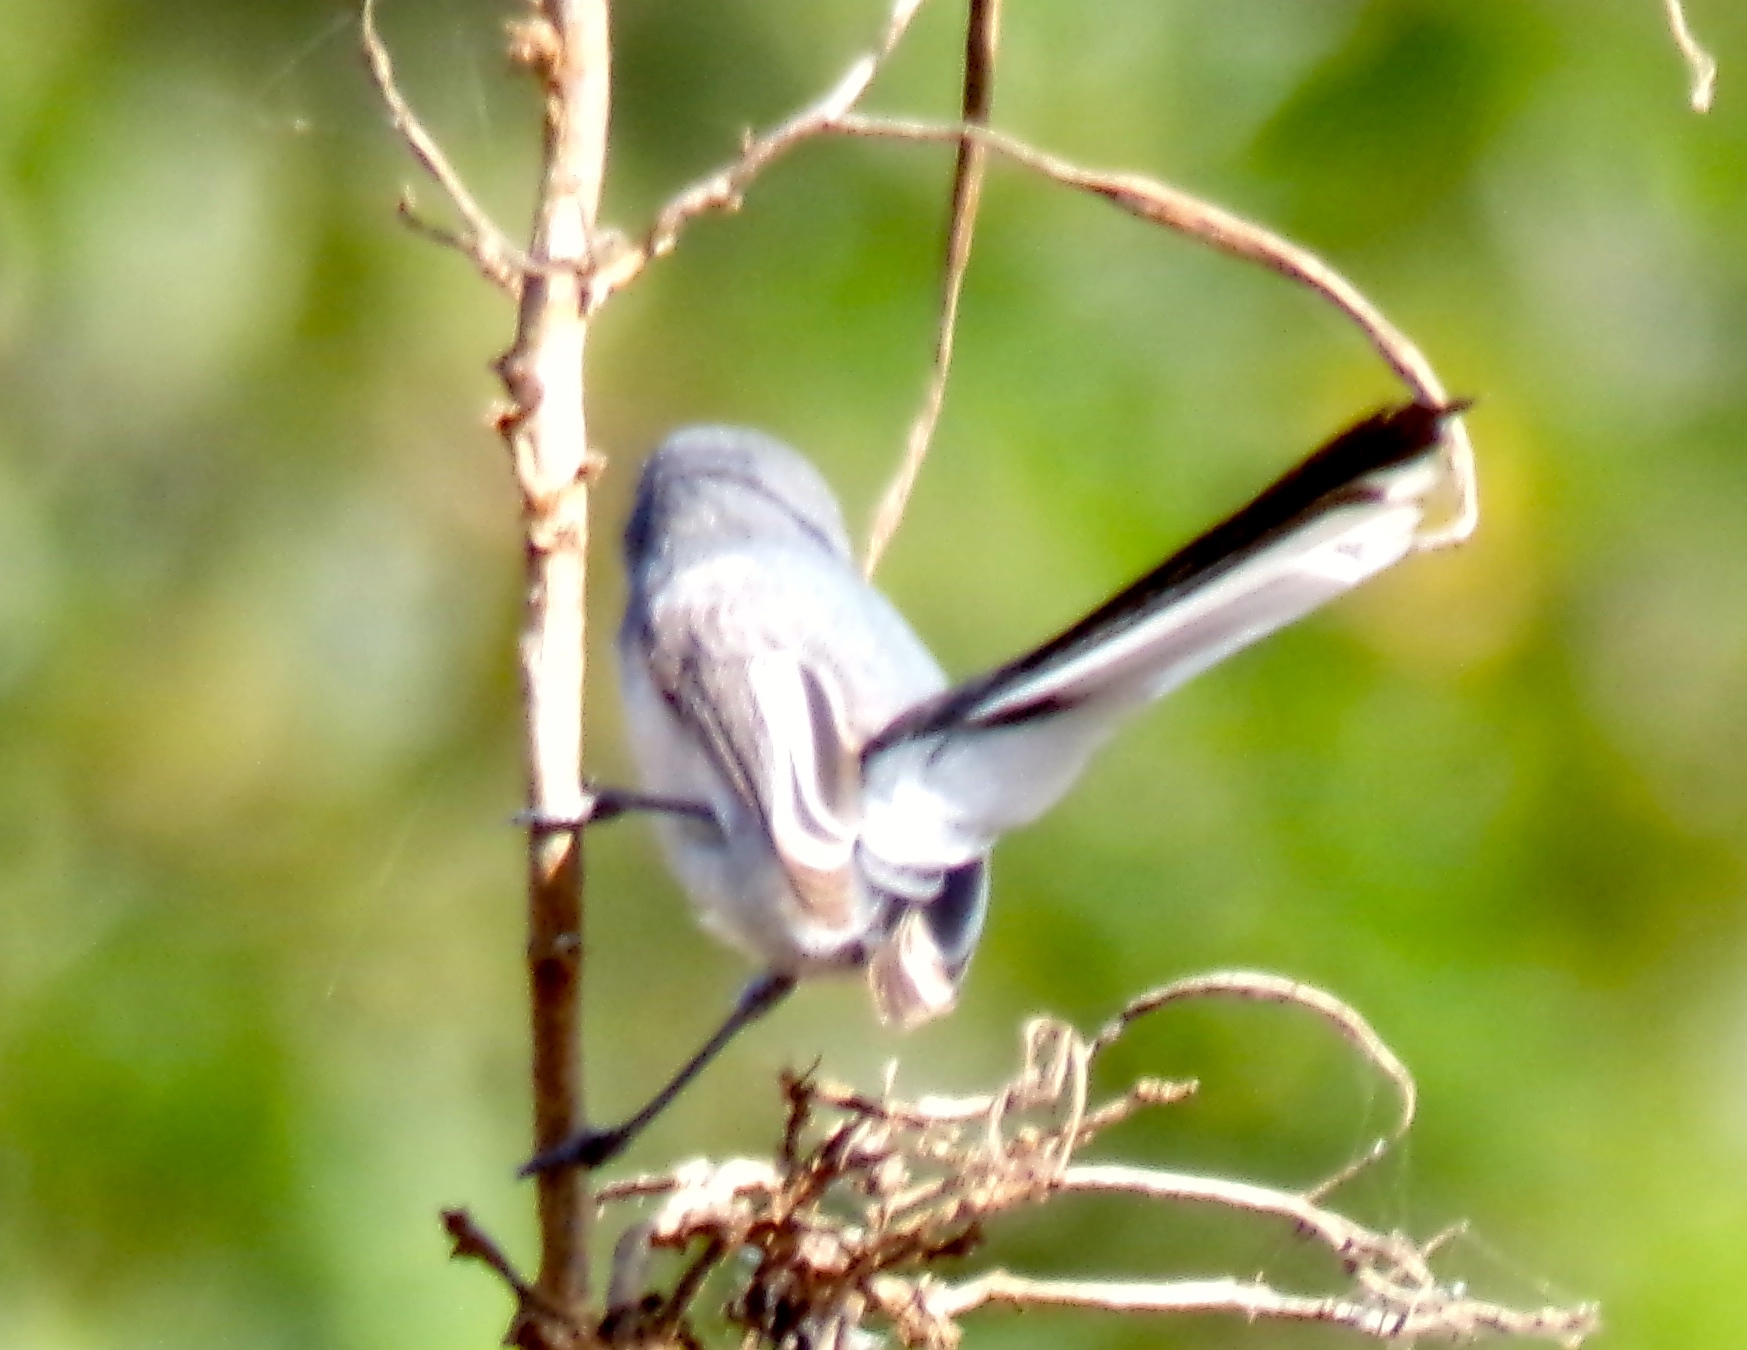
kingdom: Animalia
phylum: Chordata
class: Aves
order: Passeriformes
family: Polioptilidae
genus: Polioptila
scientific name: Polioptila caerulea
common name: Blue-gray gnatcatcher
